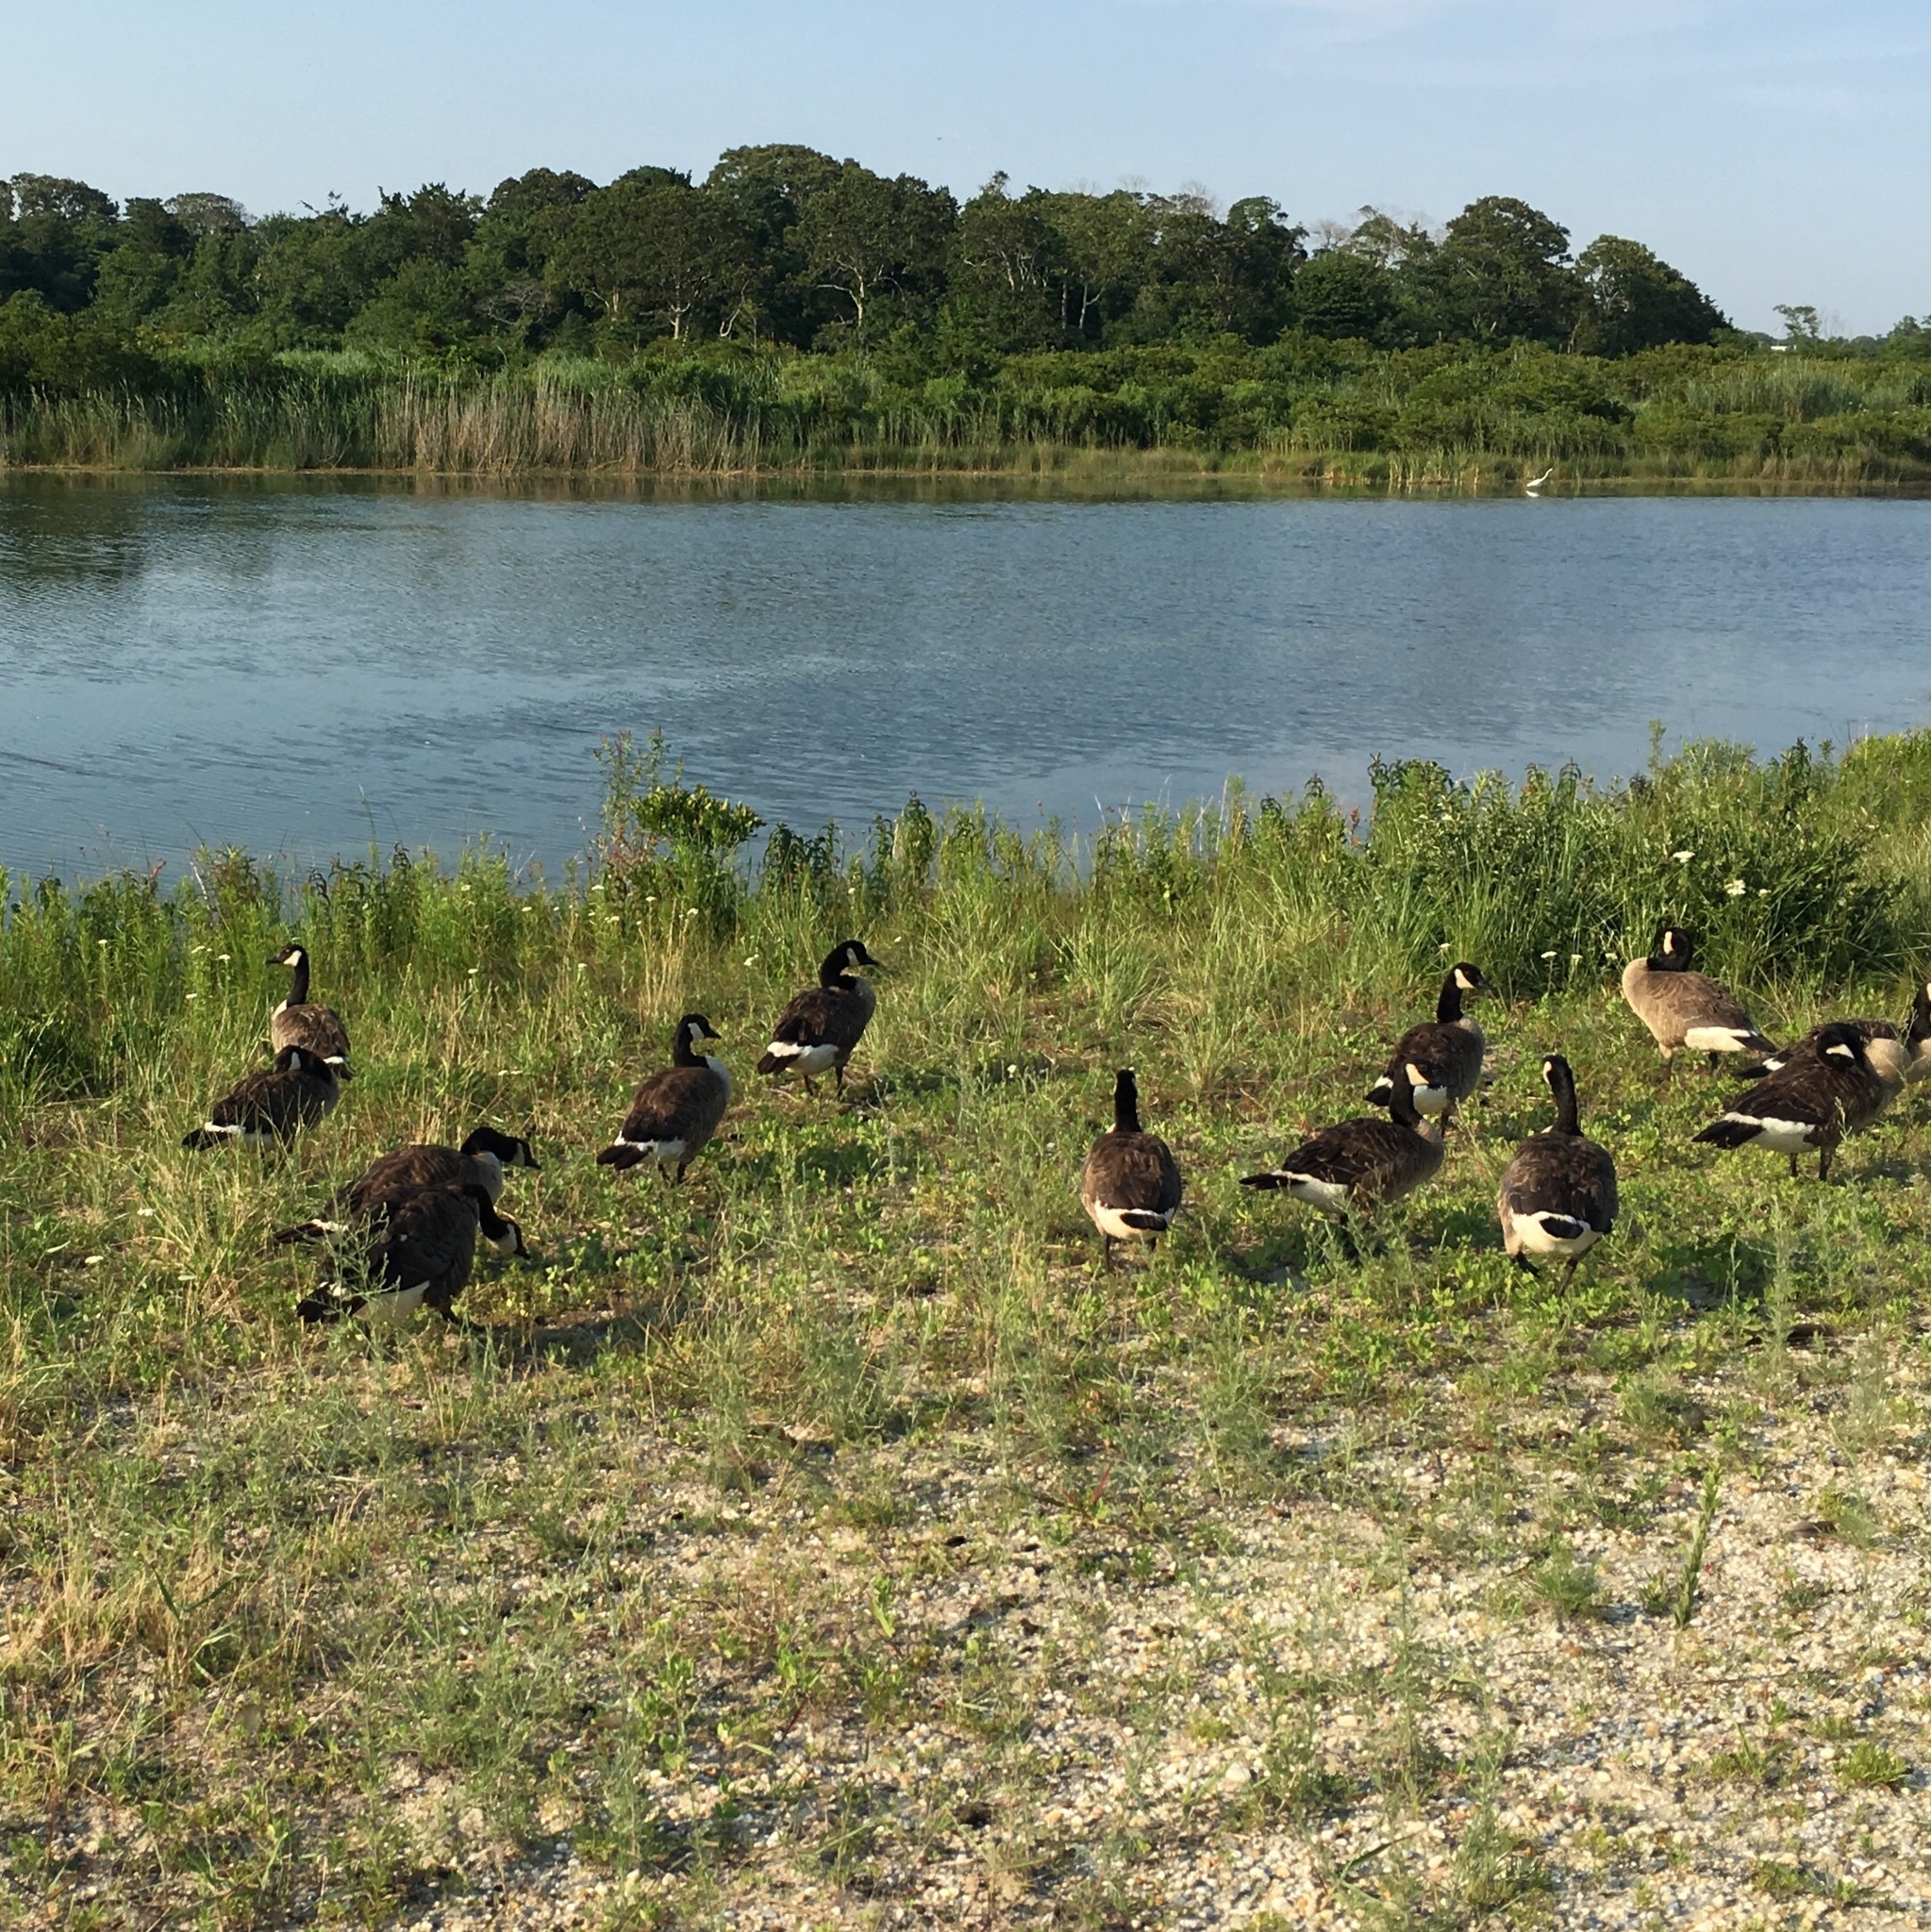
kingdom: Animalia
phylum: Chordata
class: Aves
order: Anseriformes
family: Anatidae
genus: Branta
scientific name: Branta canadensis
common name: Canada goose
